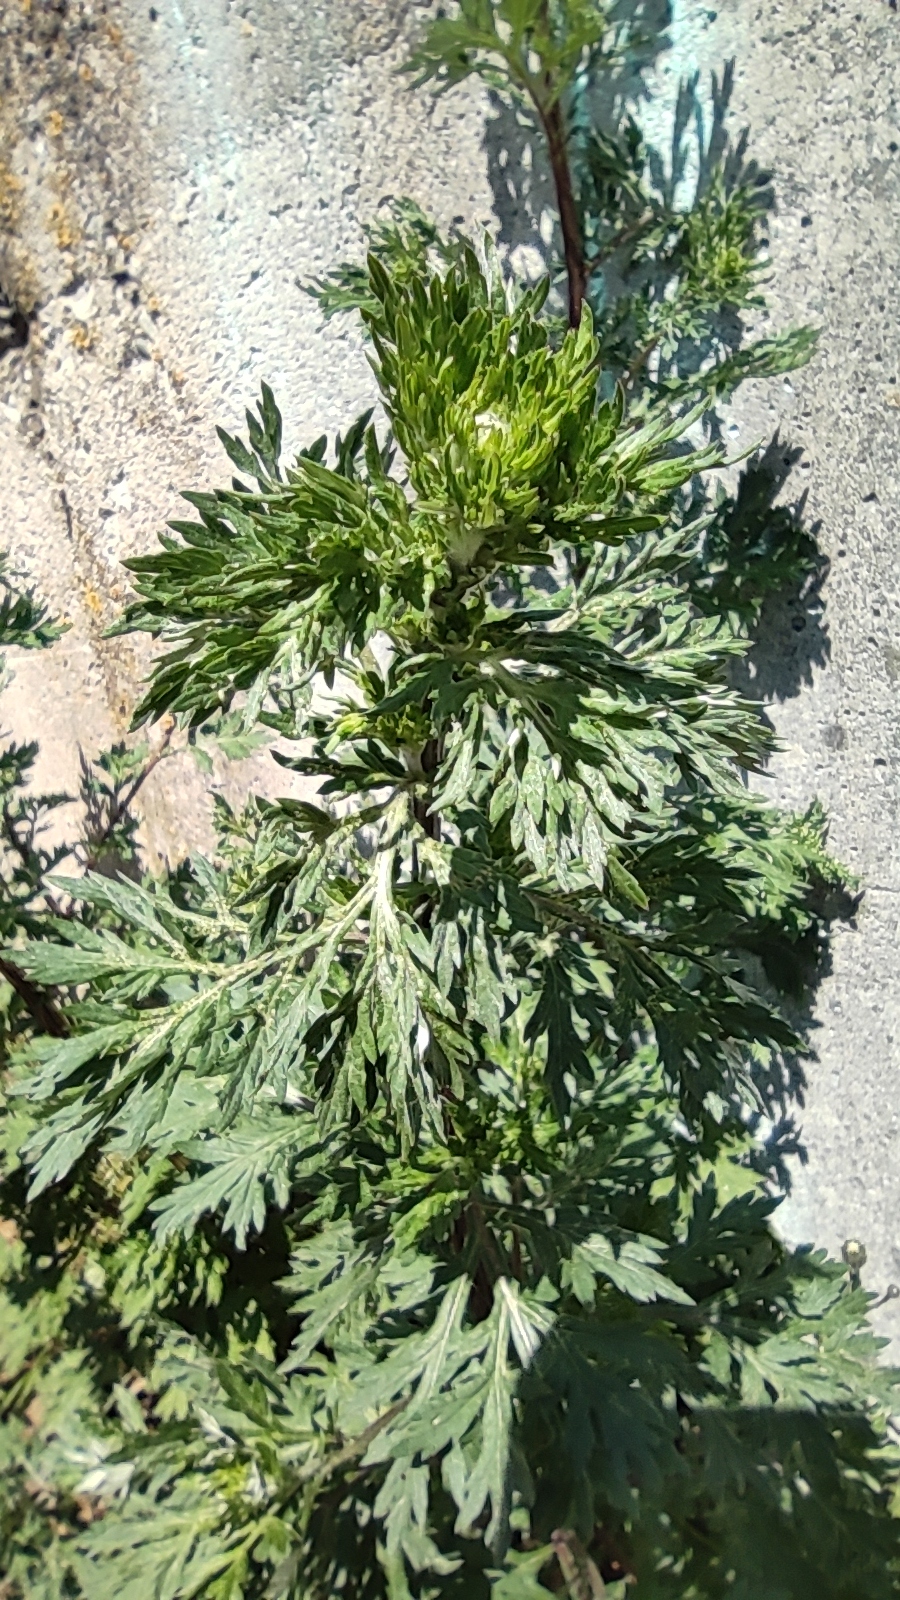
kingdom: Plantae
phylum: Tracheophyta
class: Magnoliopsida
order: Asterales
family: Asteraceae
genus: Artemisia
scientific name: Artemisia vulgaris
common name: Mugwort
